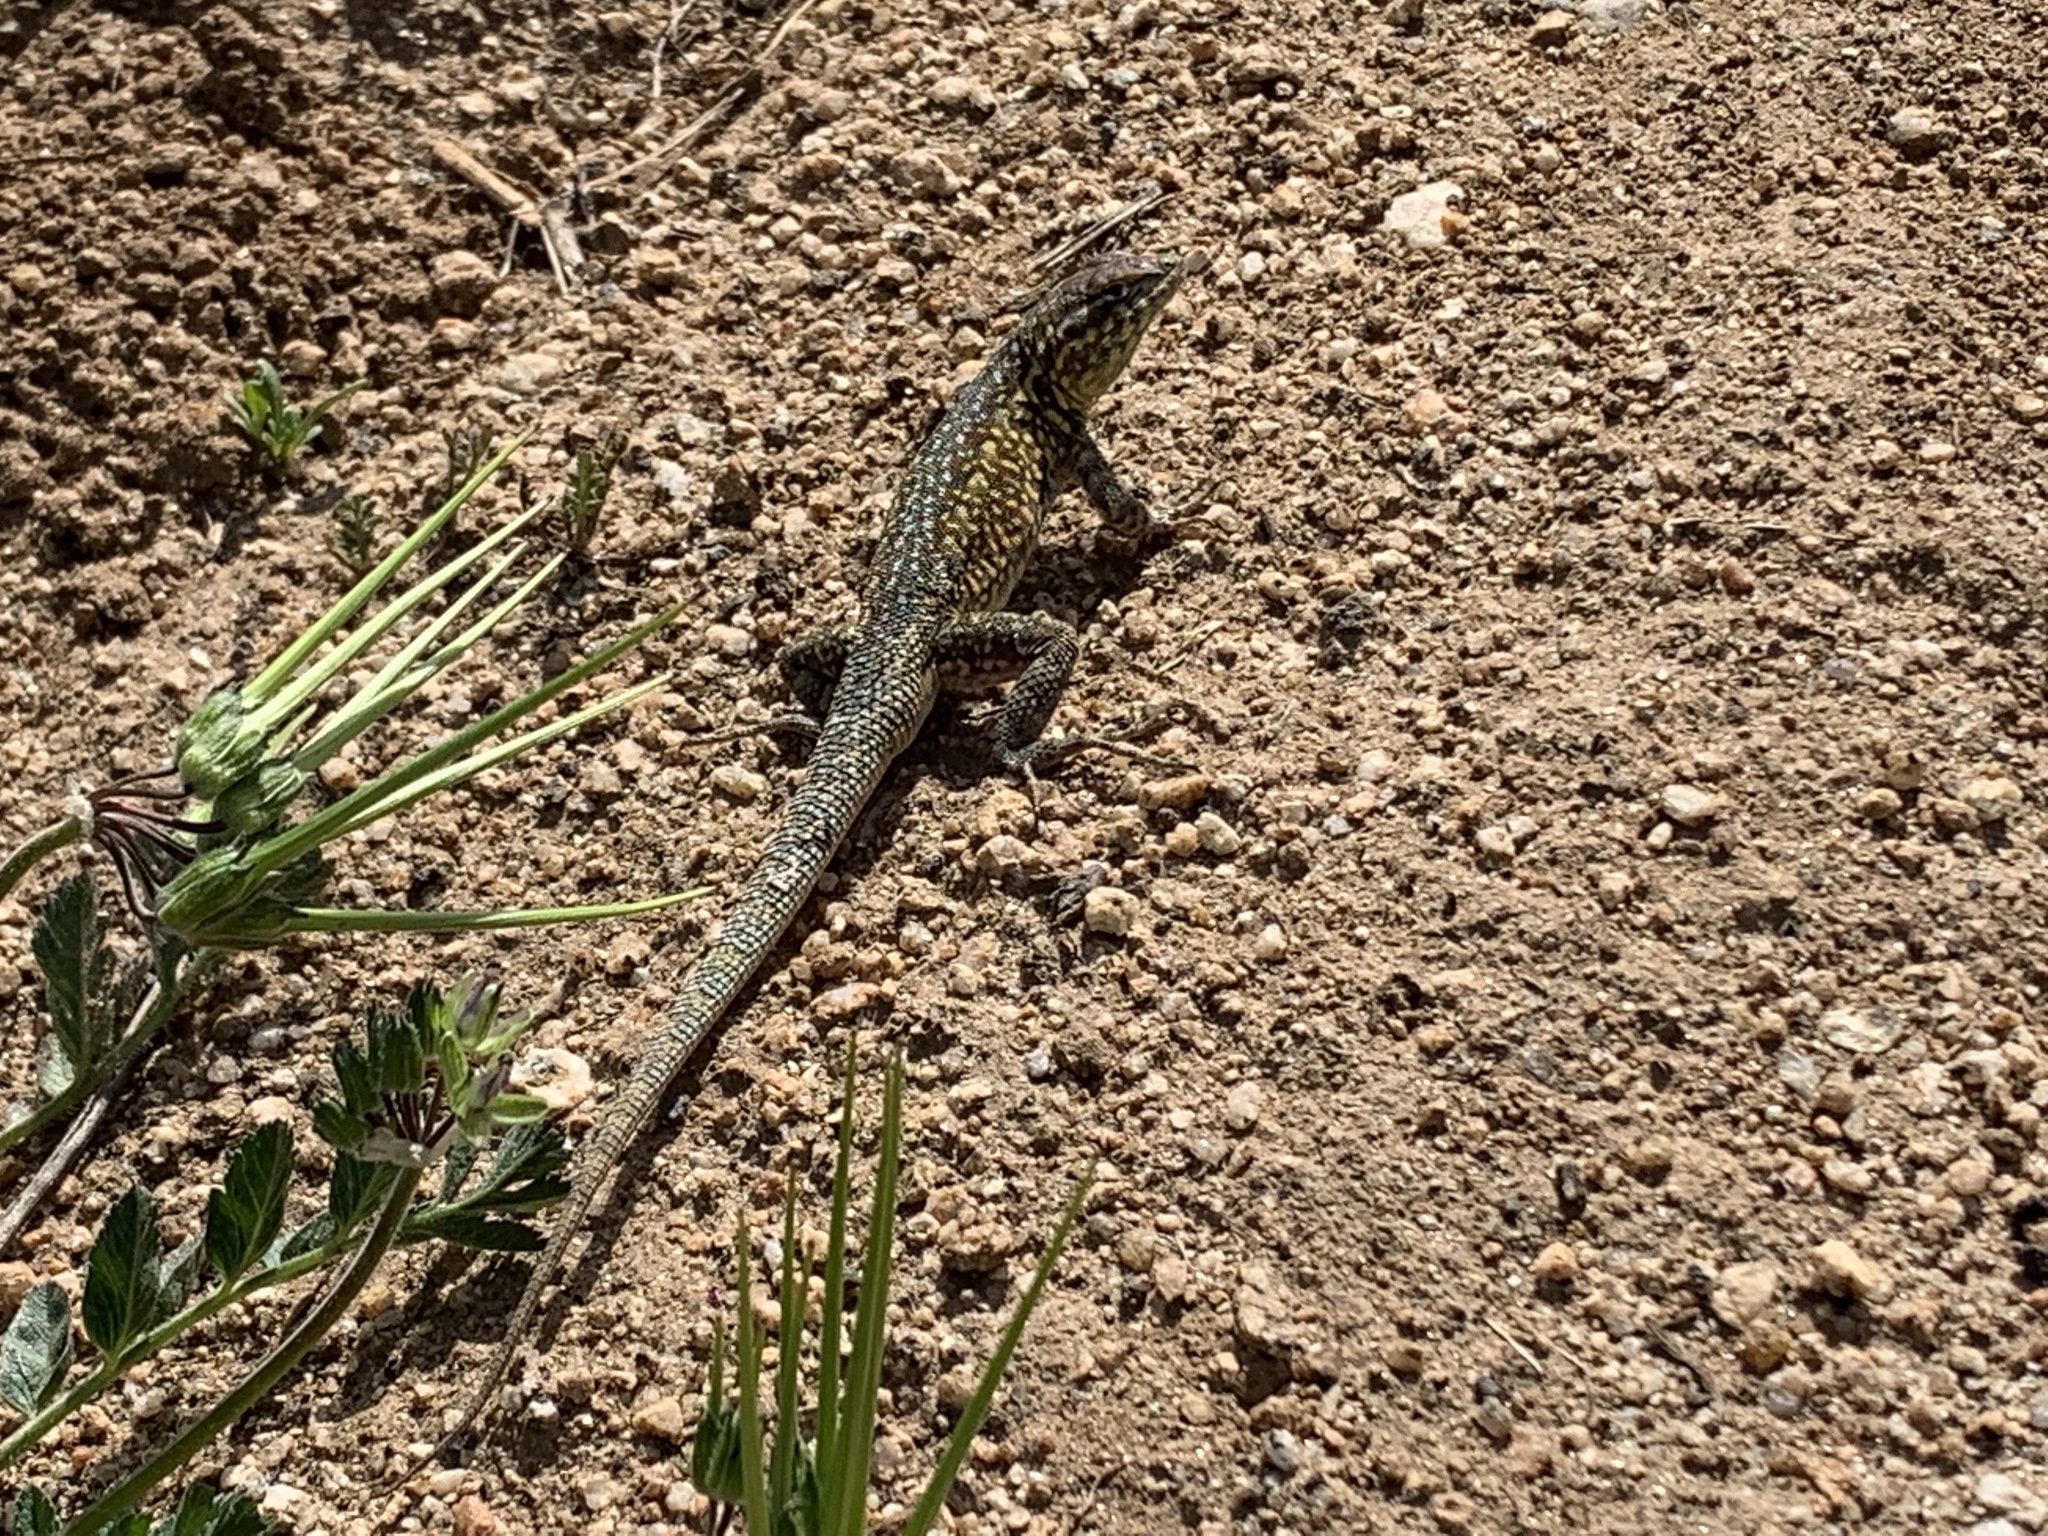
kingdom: Animalia
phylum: Chordata
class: Squamata
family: Phrynosomatidae
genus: Uta
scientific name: Uta stansburiana
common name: Side-blotched lizard
